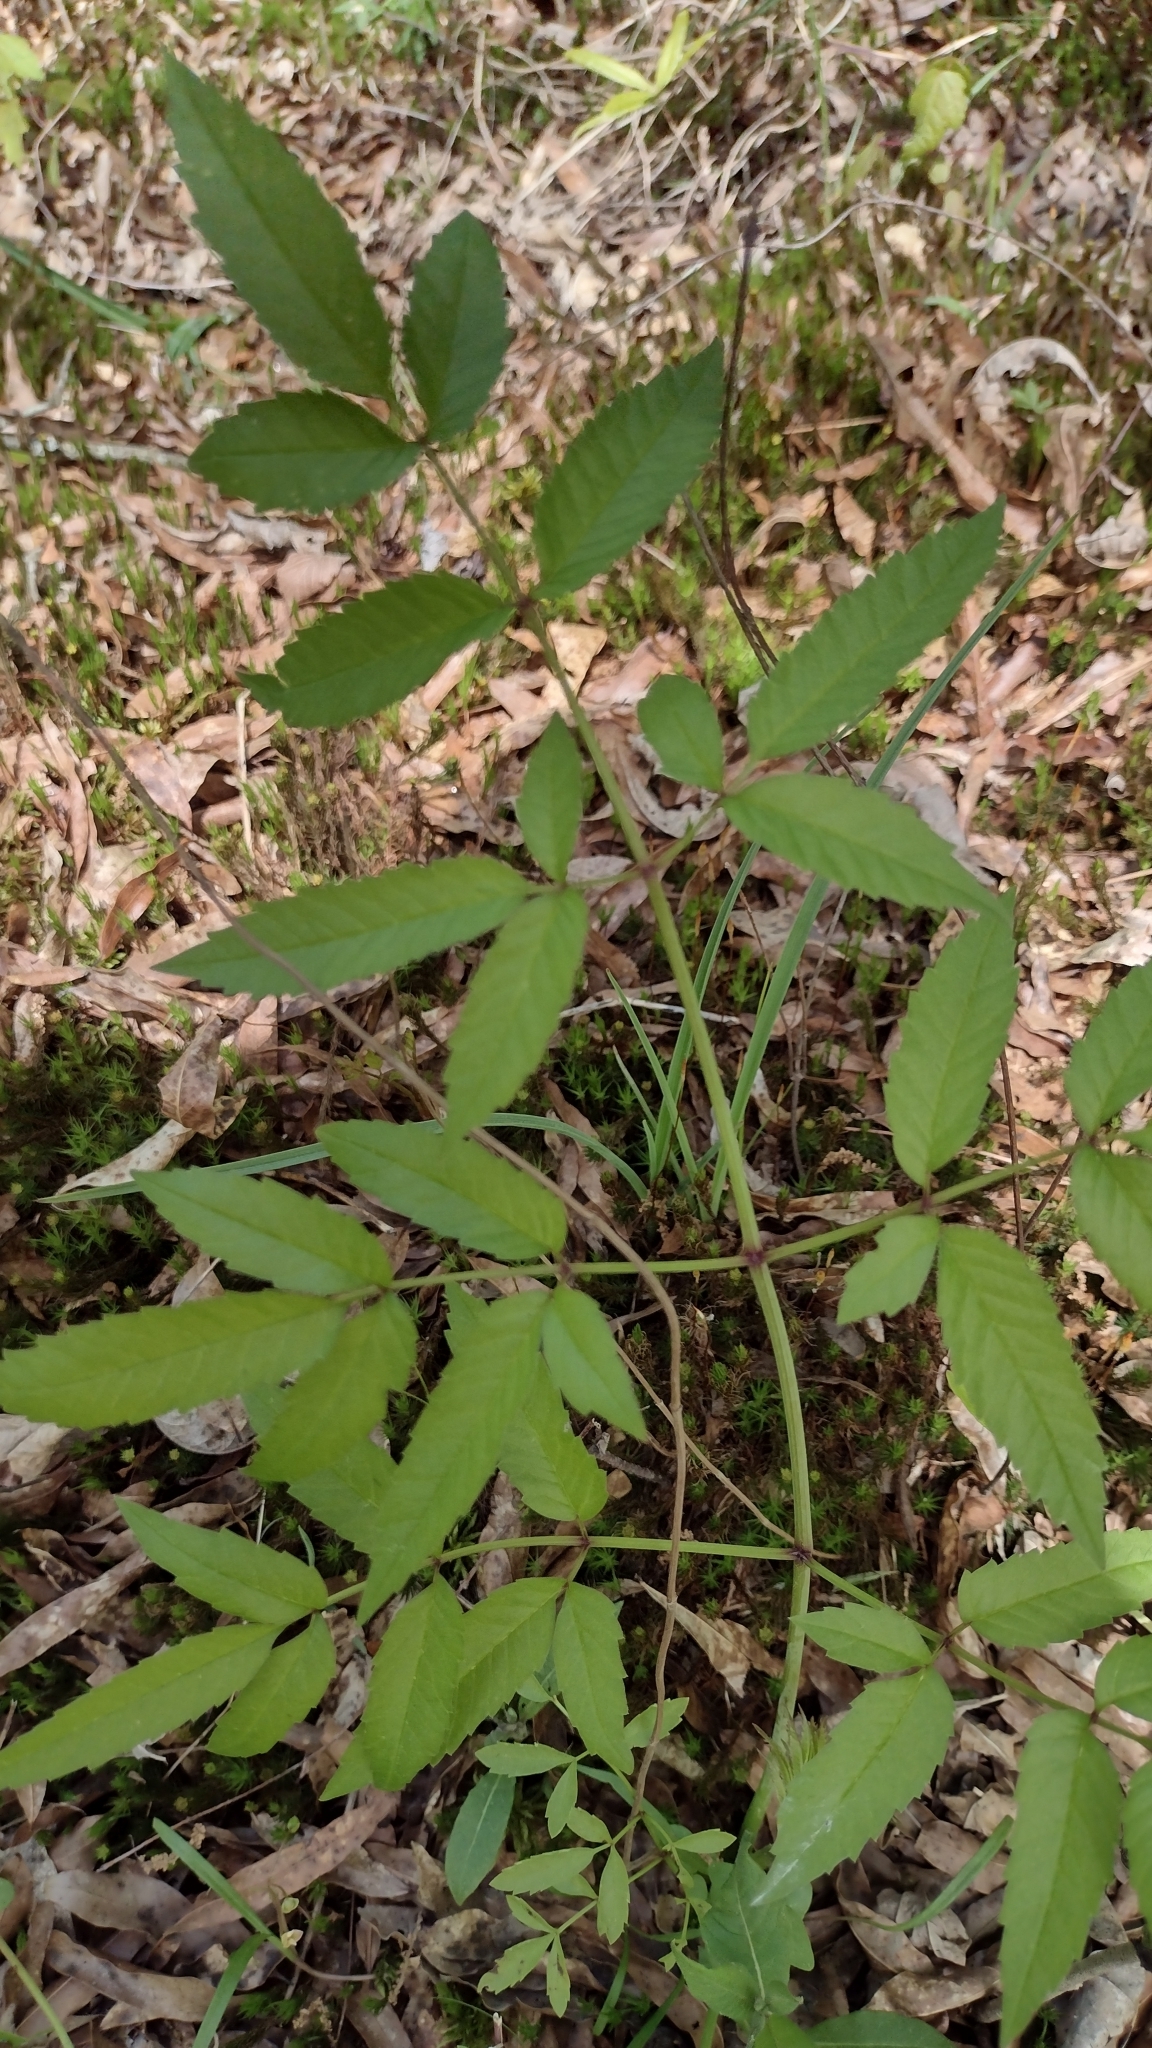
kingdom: Plantae
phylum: Tracheophyta
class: Magnoliopsida
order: Apiales
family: Apiaceae
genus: Cicuta
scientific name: Cicuta maculata
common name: Spotted cowbane
